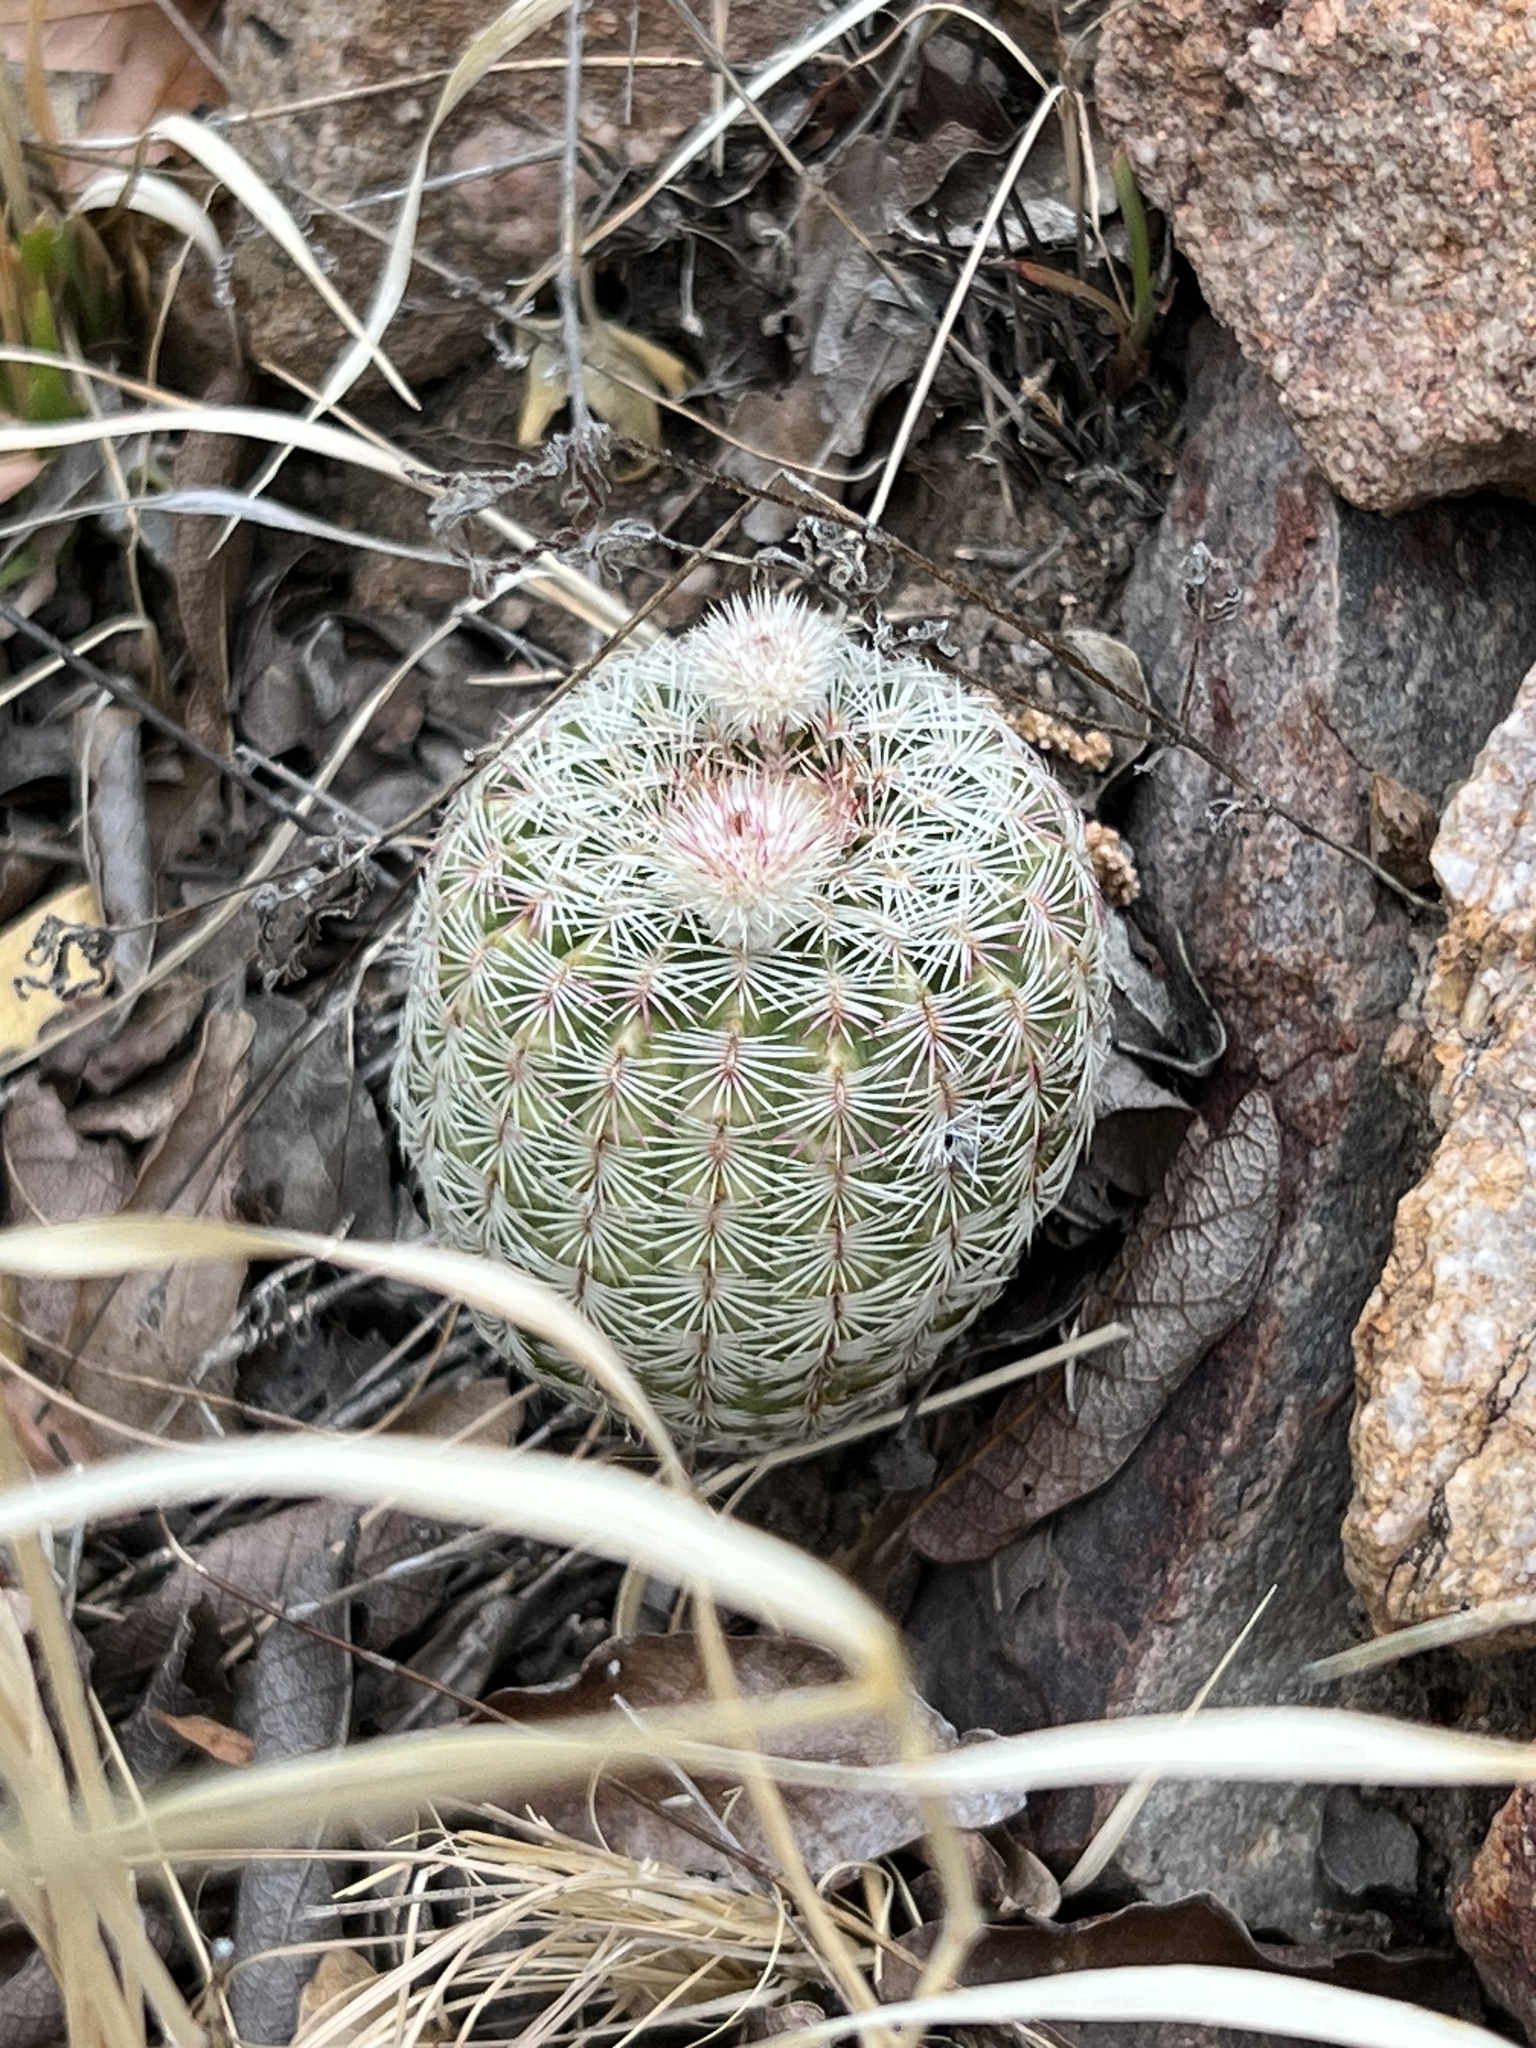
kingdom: Plantae
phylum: Tracheophyta
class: Magnoliopsida
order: Caryophyllales
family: Cactaceae
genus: Echinocereus
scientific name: Echinocereus rigidissimus
